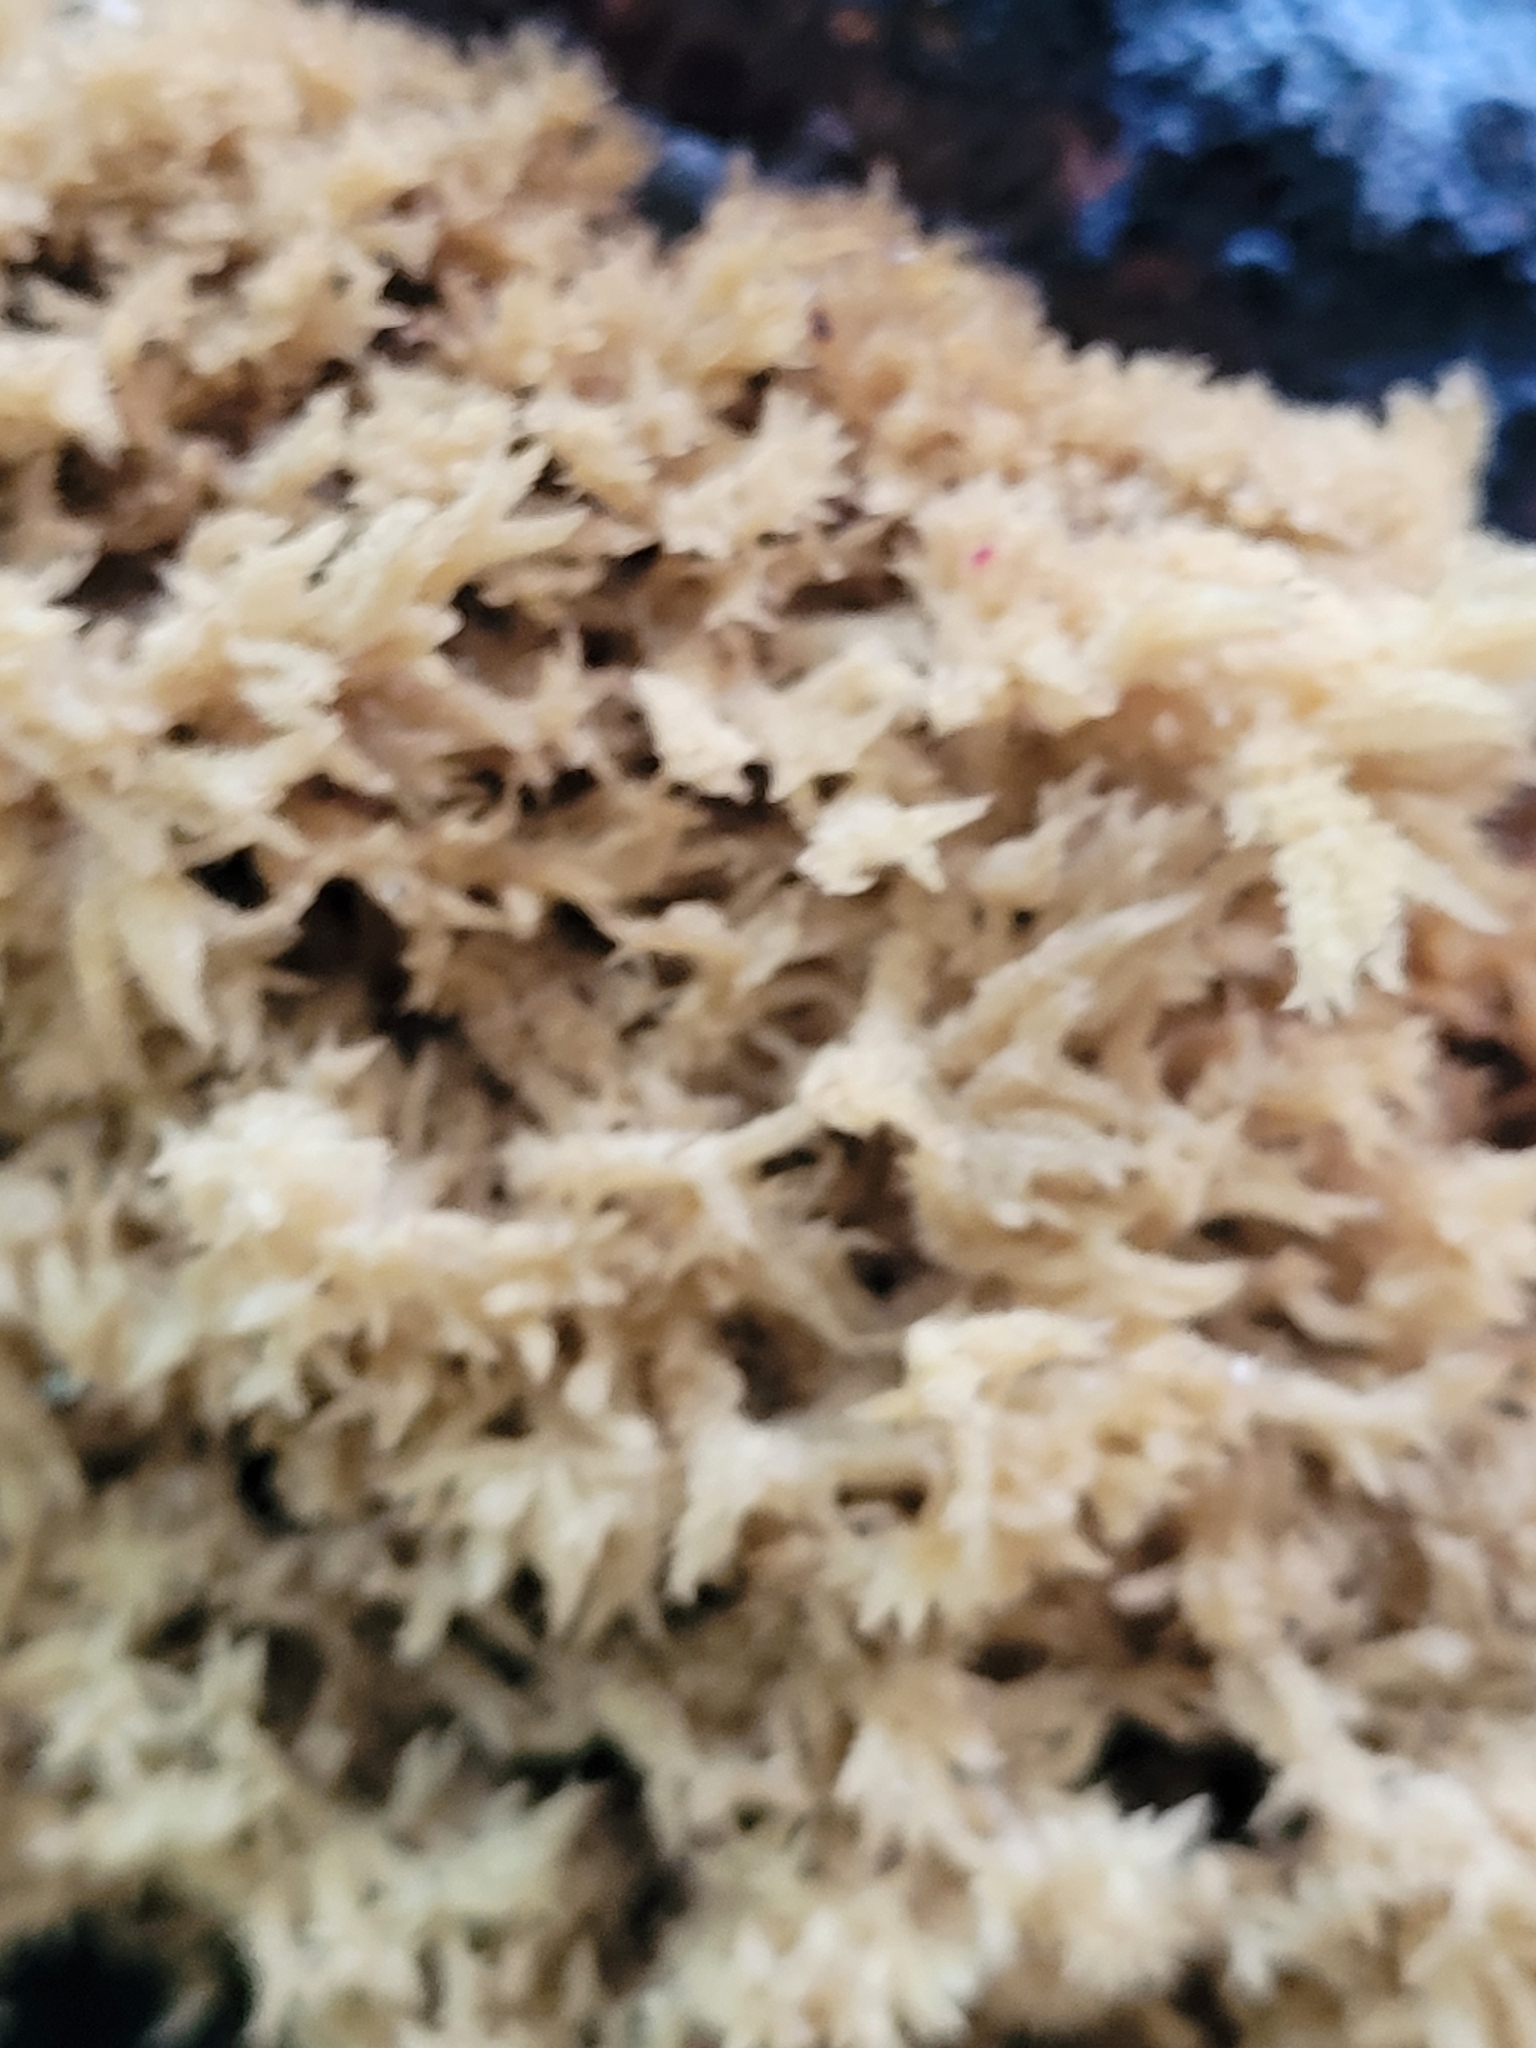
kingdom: Fungi
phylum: Ascomycota
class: Dothideomycetes
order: Capnodiales
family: Capnodiaceae
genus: Scorias
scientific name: Scorias spongiosa
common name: Black sooty mold
